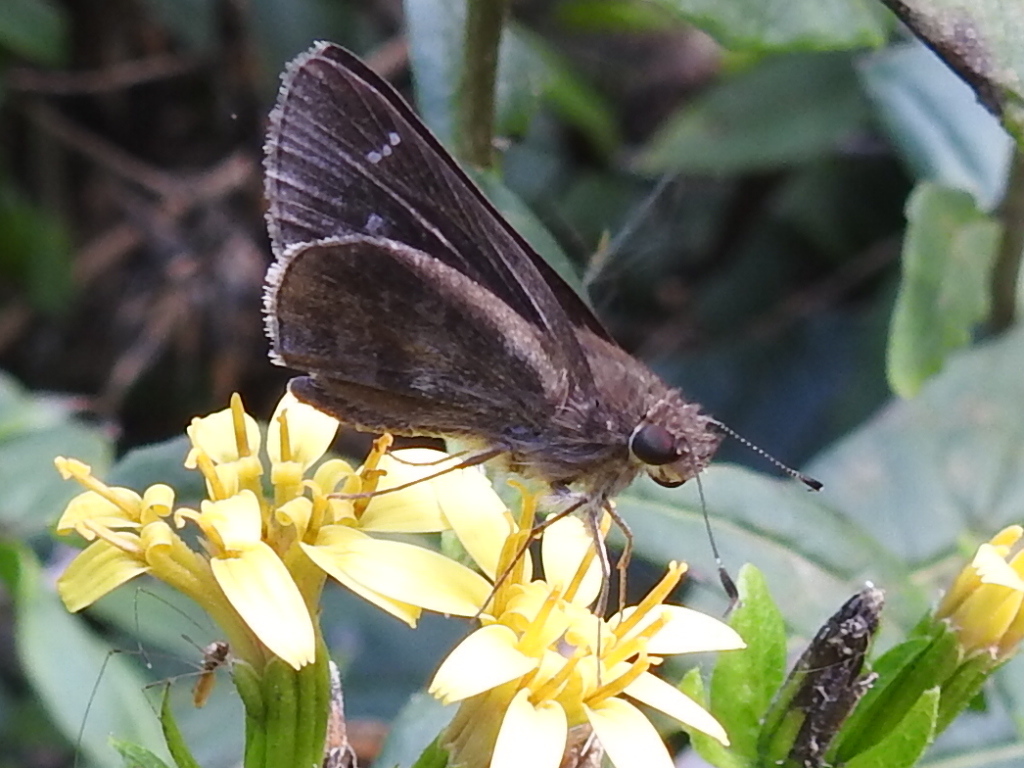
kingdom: Animalia
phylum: Arthropoda
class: Insecta
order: Lepidoptera
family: Hesperiidae
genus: Lerema
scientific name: Lerema accius
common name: Clouded skipper
